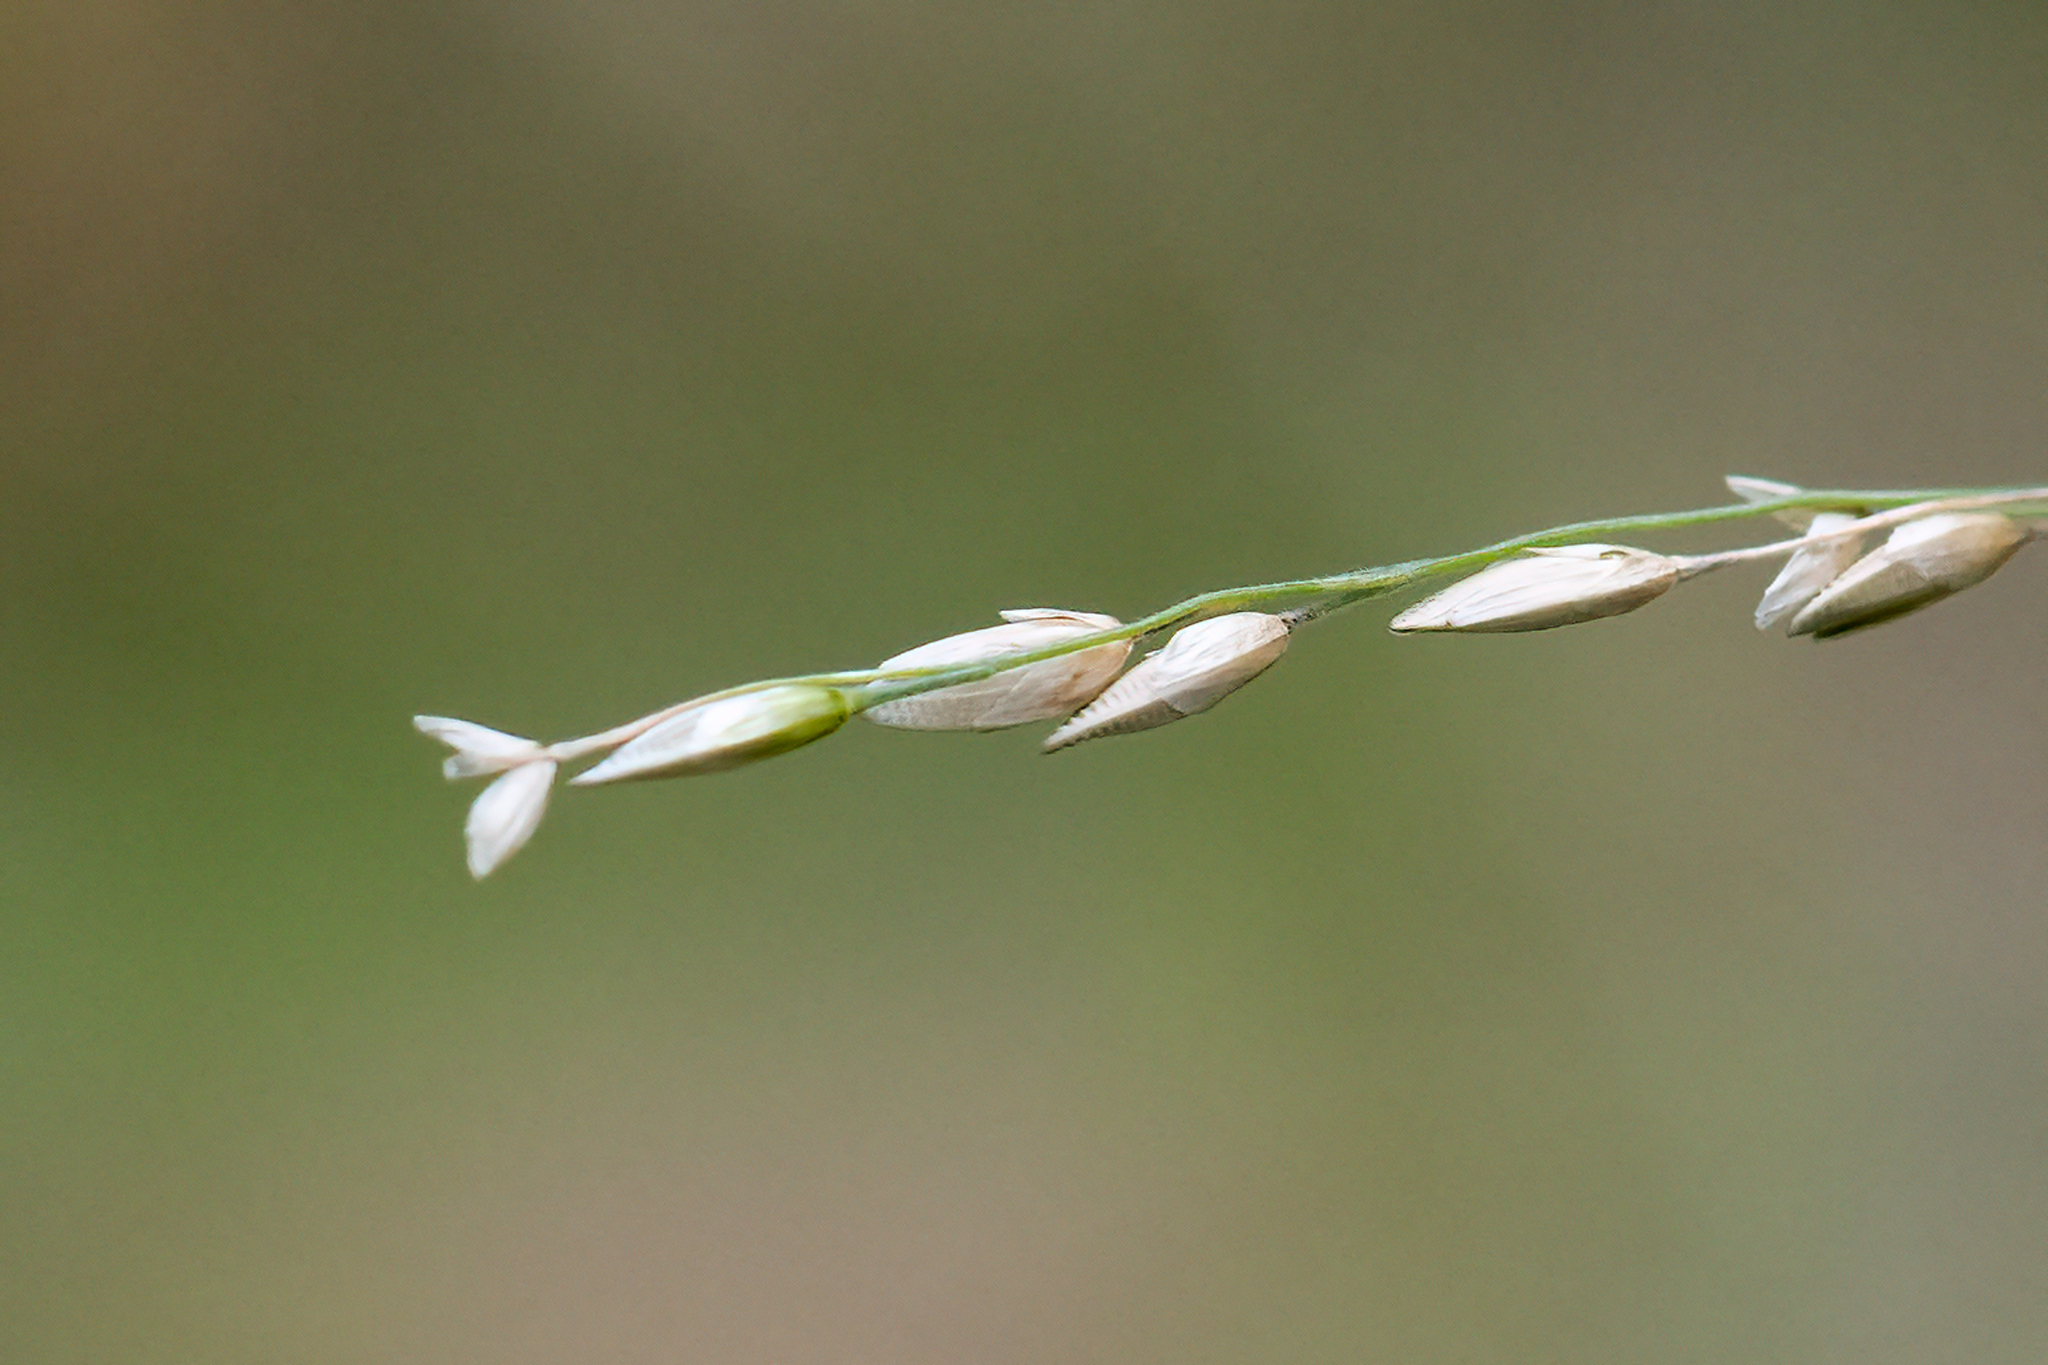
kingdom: Plantae
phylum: Tracheophyta
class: Liliopsida
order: Poales
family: Poaceae
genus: Ehrharta
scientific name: Ehrharta erecta
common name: Panic veldtgrass
